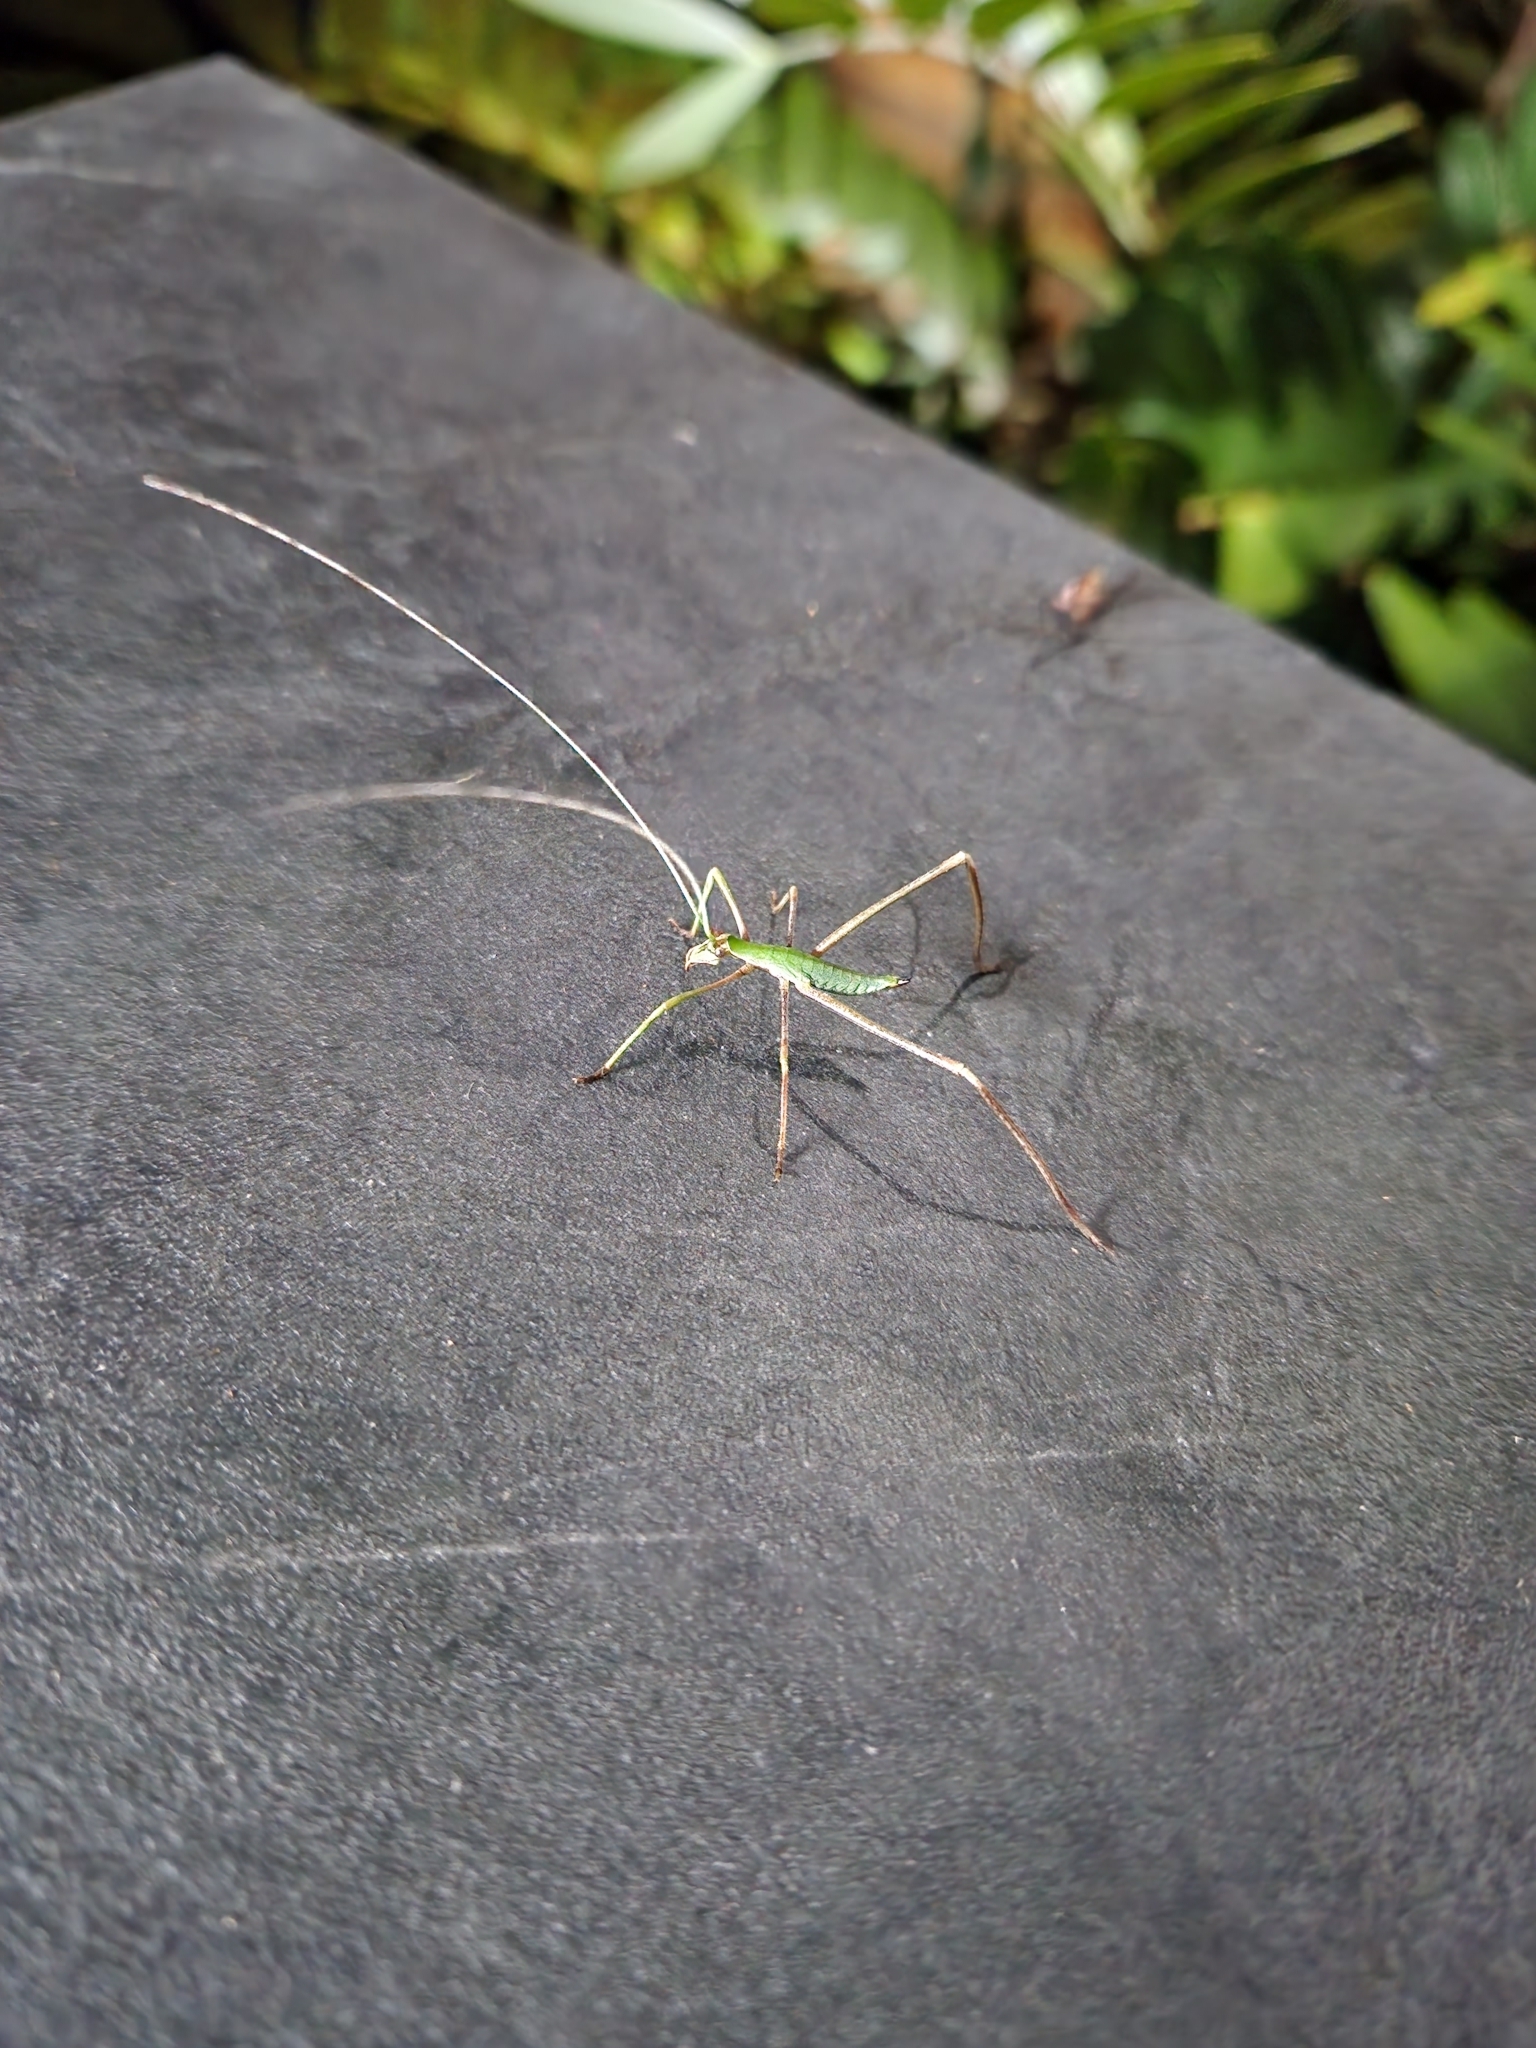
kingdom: Animalia
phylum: Arthropoda
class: Insecta
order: Orthoptera
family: Tettigoniidae
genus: Anthophiloptera
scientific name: Anthophiloptera dryas
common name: Balsam beast
